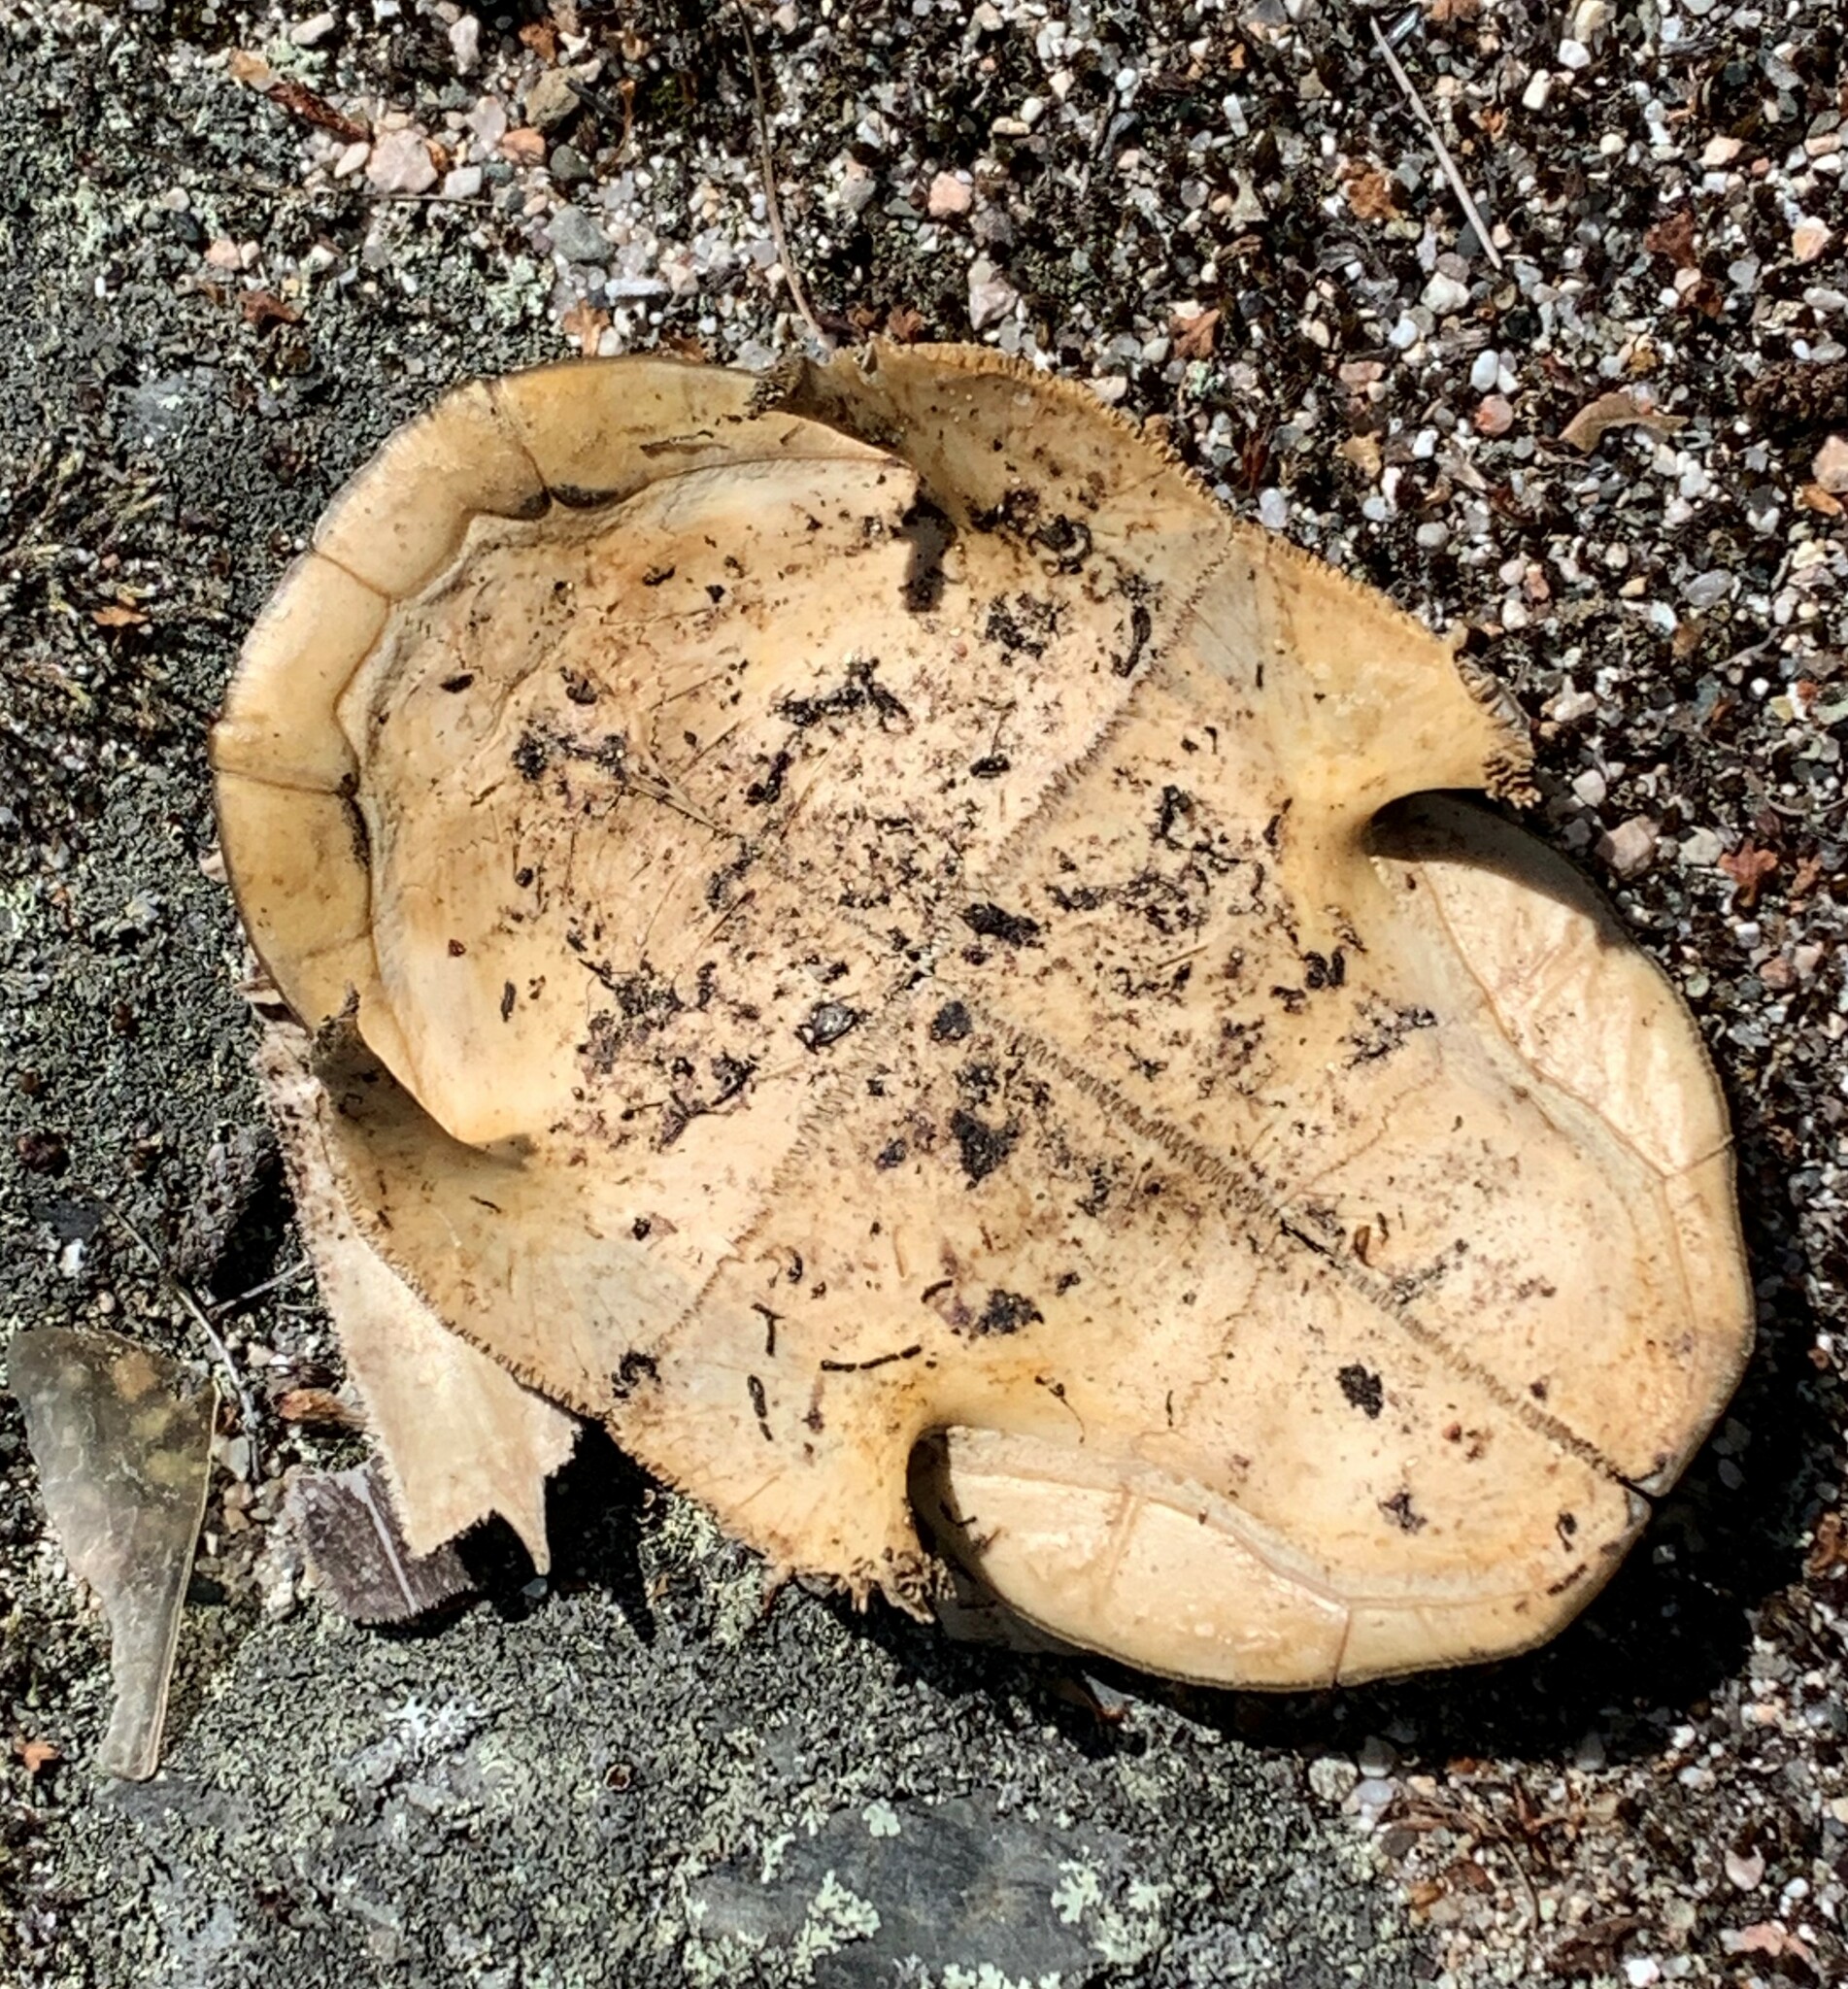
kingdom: Animalia
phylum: Chordata
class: Testudines
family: Emydidae
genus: Chrysemys
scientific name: Chrysemys picta
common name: Painted turtle
